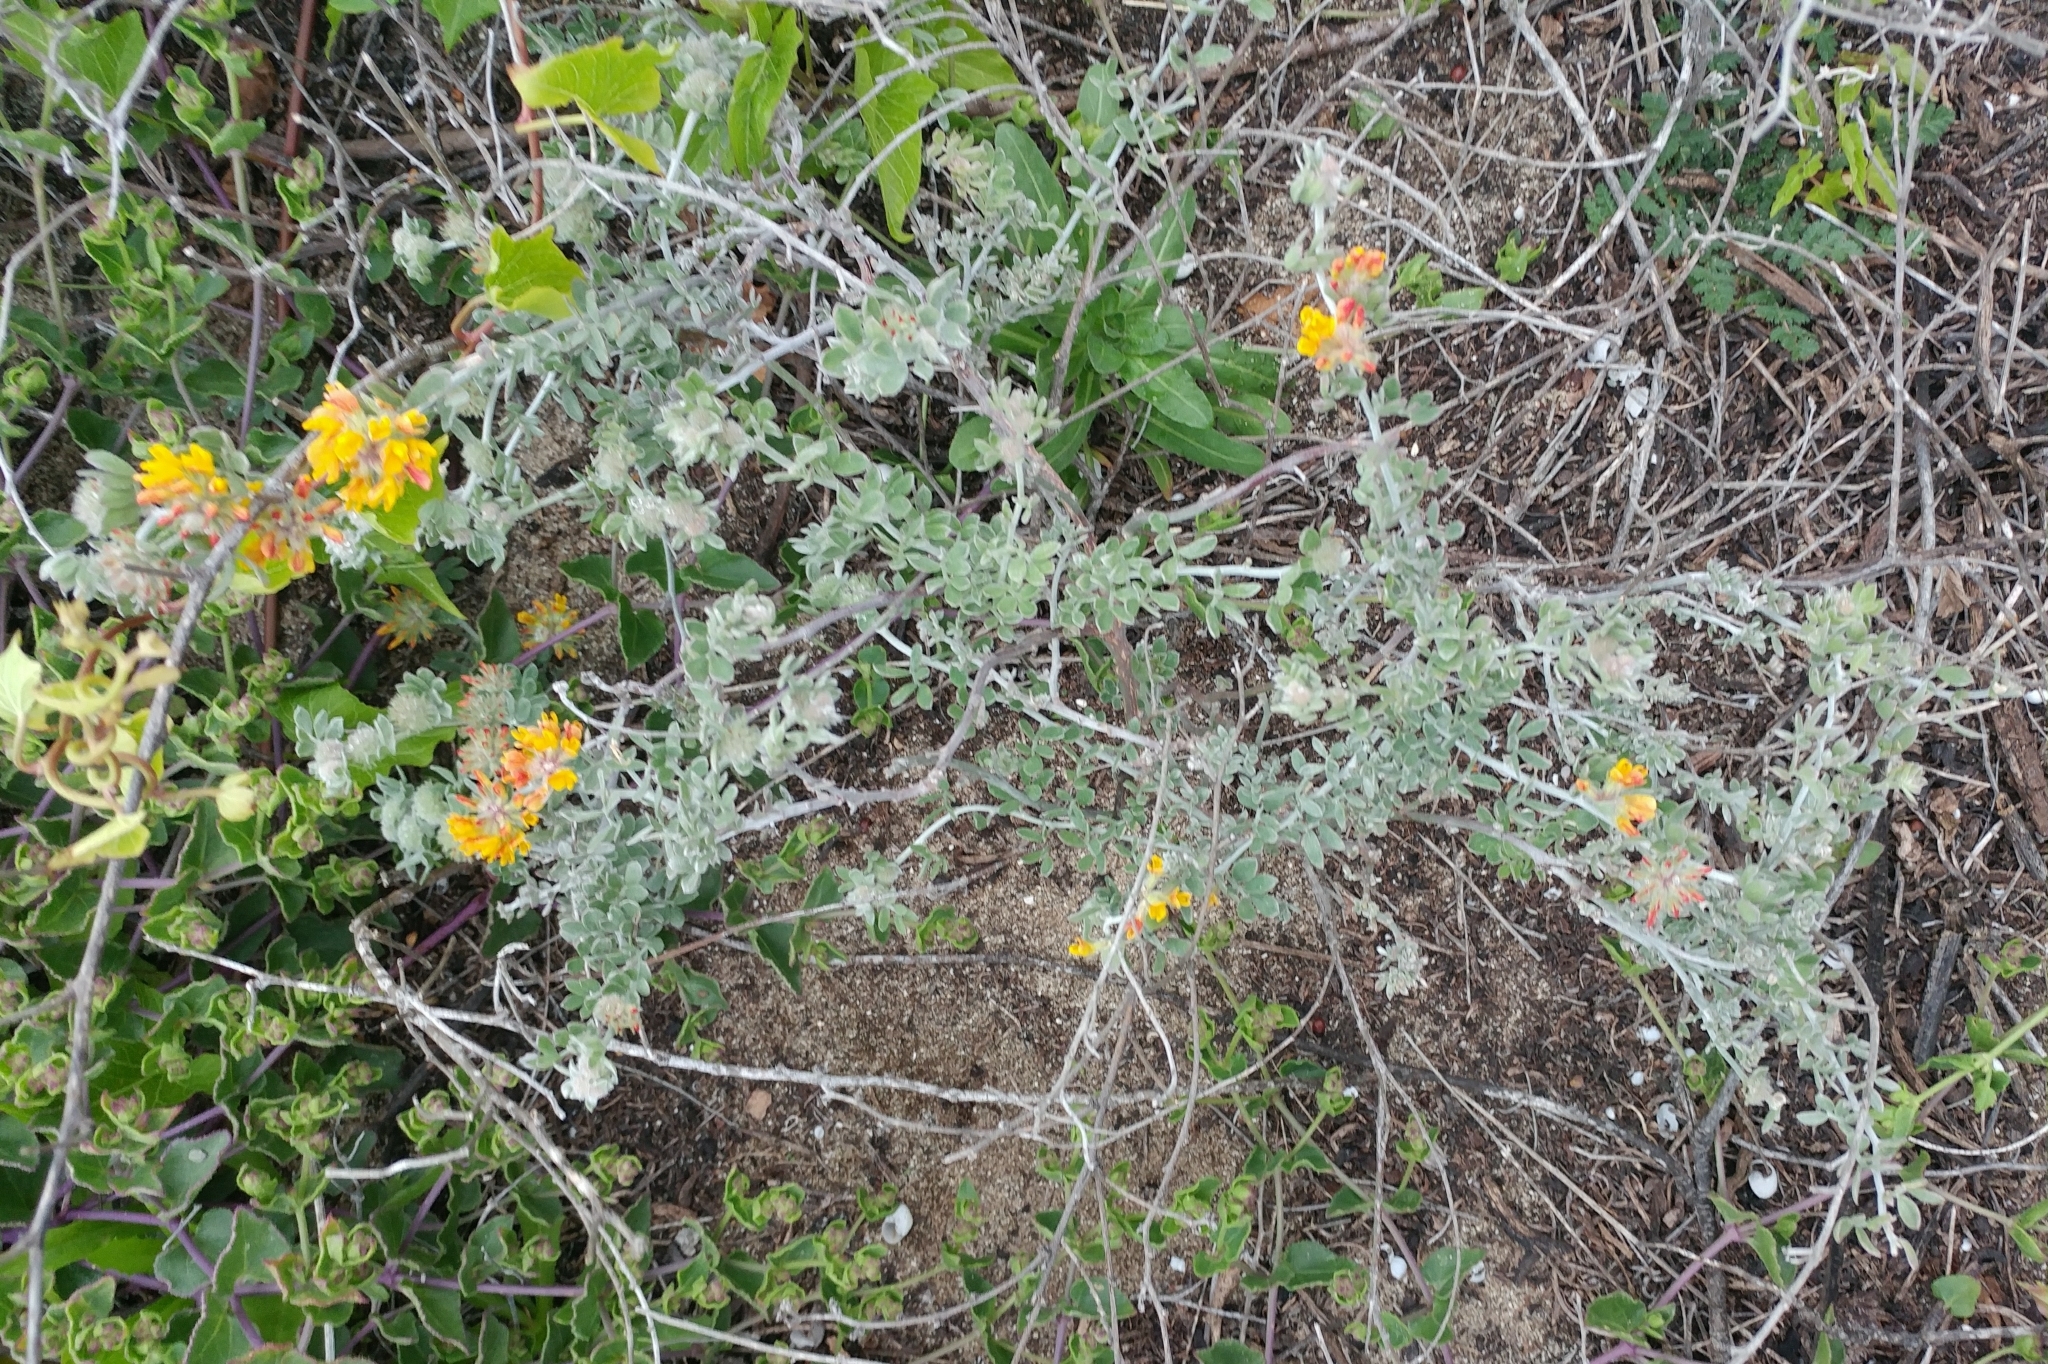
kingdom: Plantae
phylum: Tracheophyta
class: Magnoliopsida
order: Fabales
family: Fabaceae
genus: Acmispon
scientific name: Acmispon argophyllus
